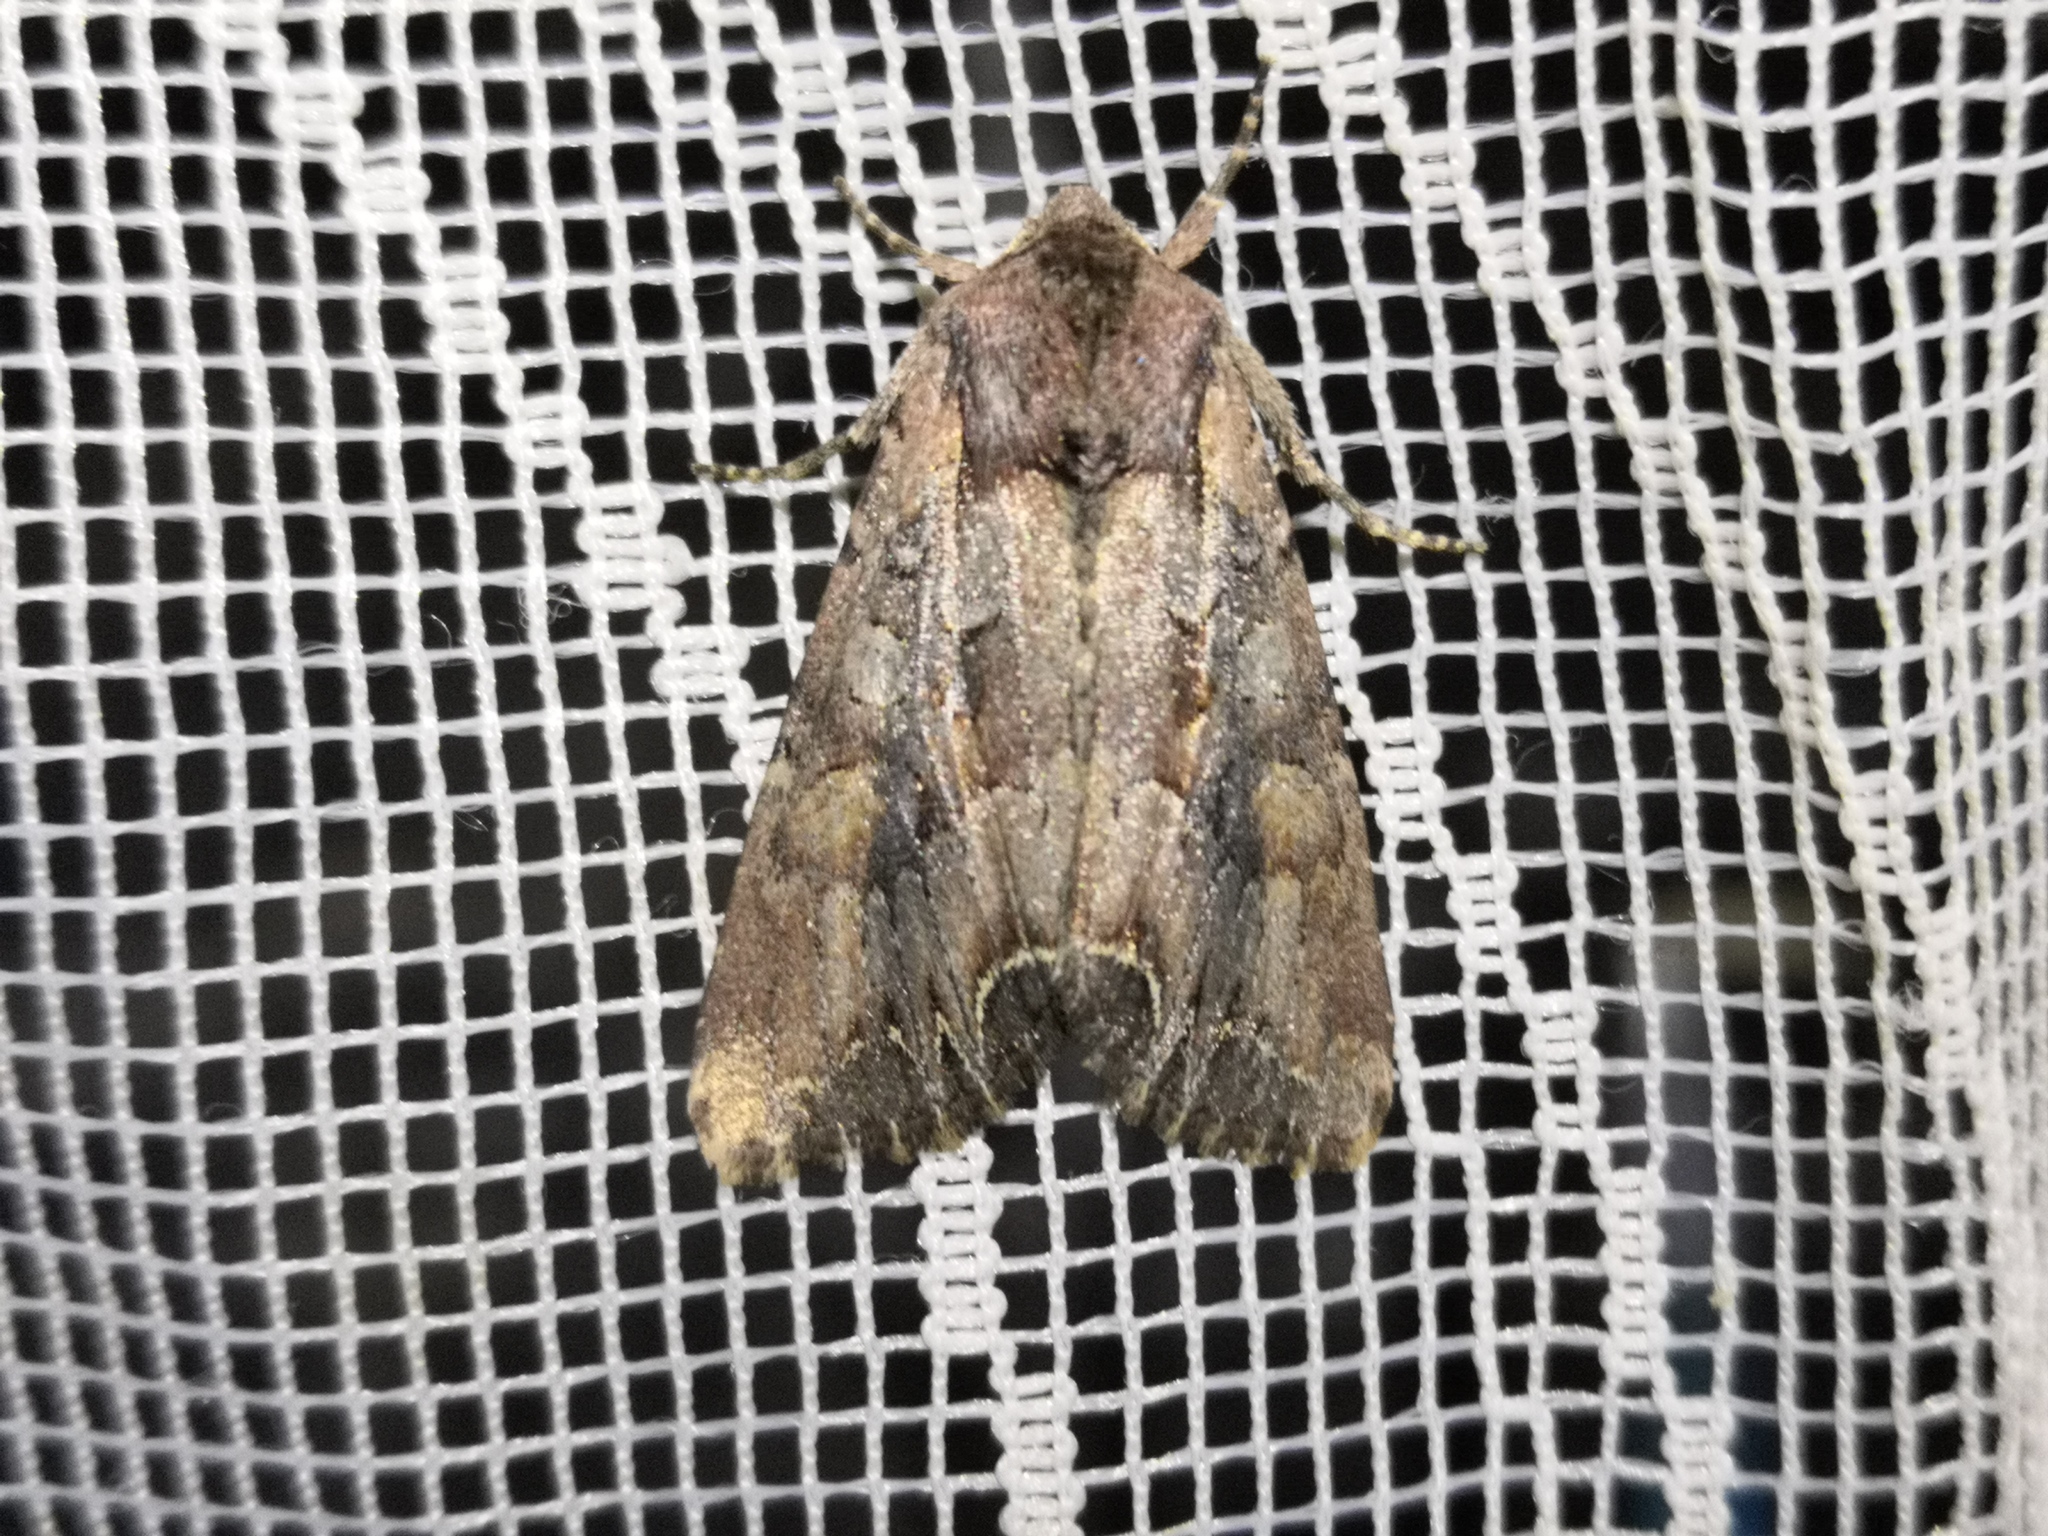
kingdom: Animalia
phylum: Arthropoda
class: Insecta
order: Lepidoptera
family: Noctuidae
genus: Lacanobia
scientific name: Lacanobia suasa
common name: Dog's tooth
